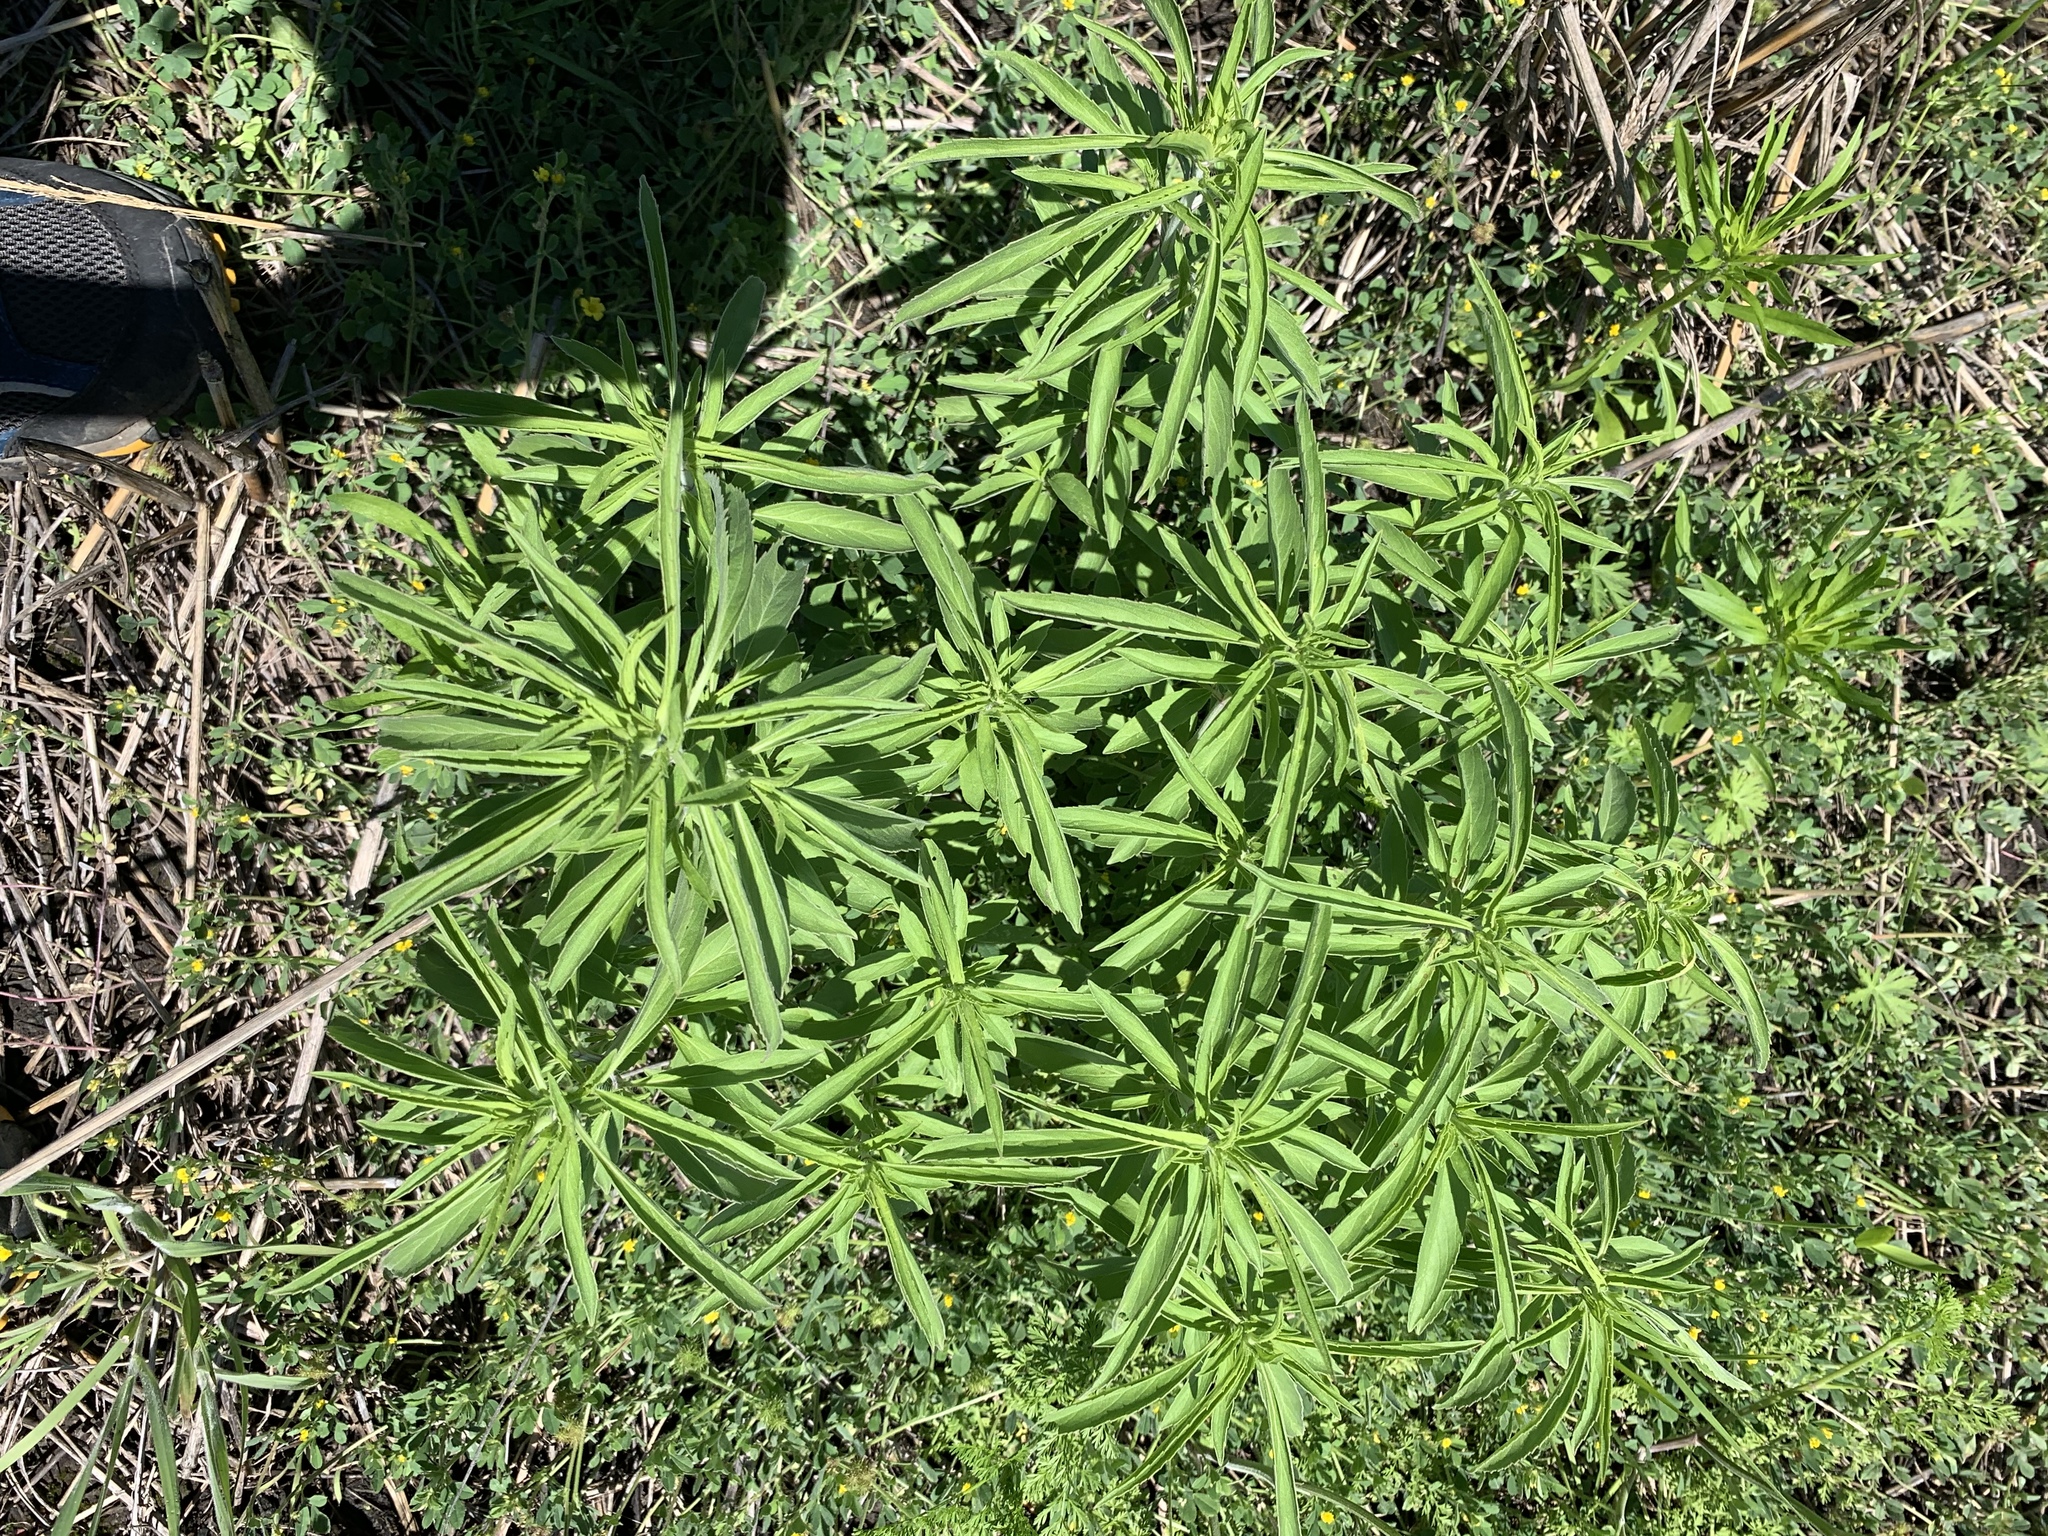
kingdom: Plantae
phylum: Tracheophyta
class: Magnoliopsida
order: Asterales
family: Asteraceae
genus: Helianthus
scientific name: Helianthus maximiliani
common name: Maximilian's sunflower
